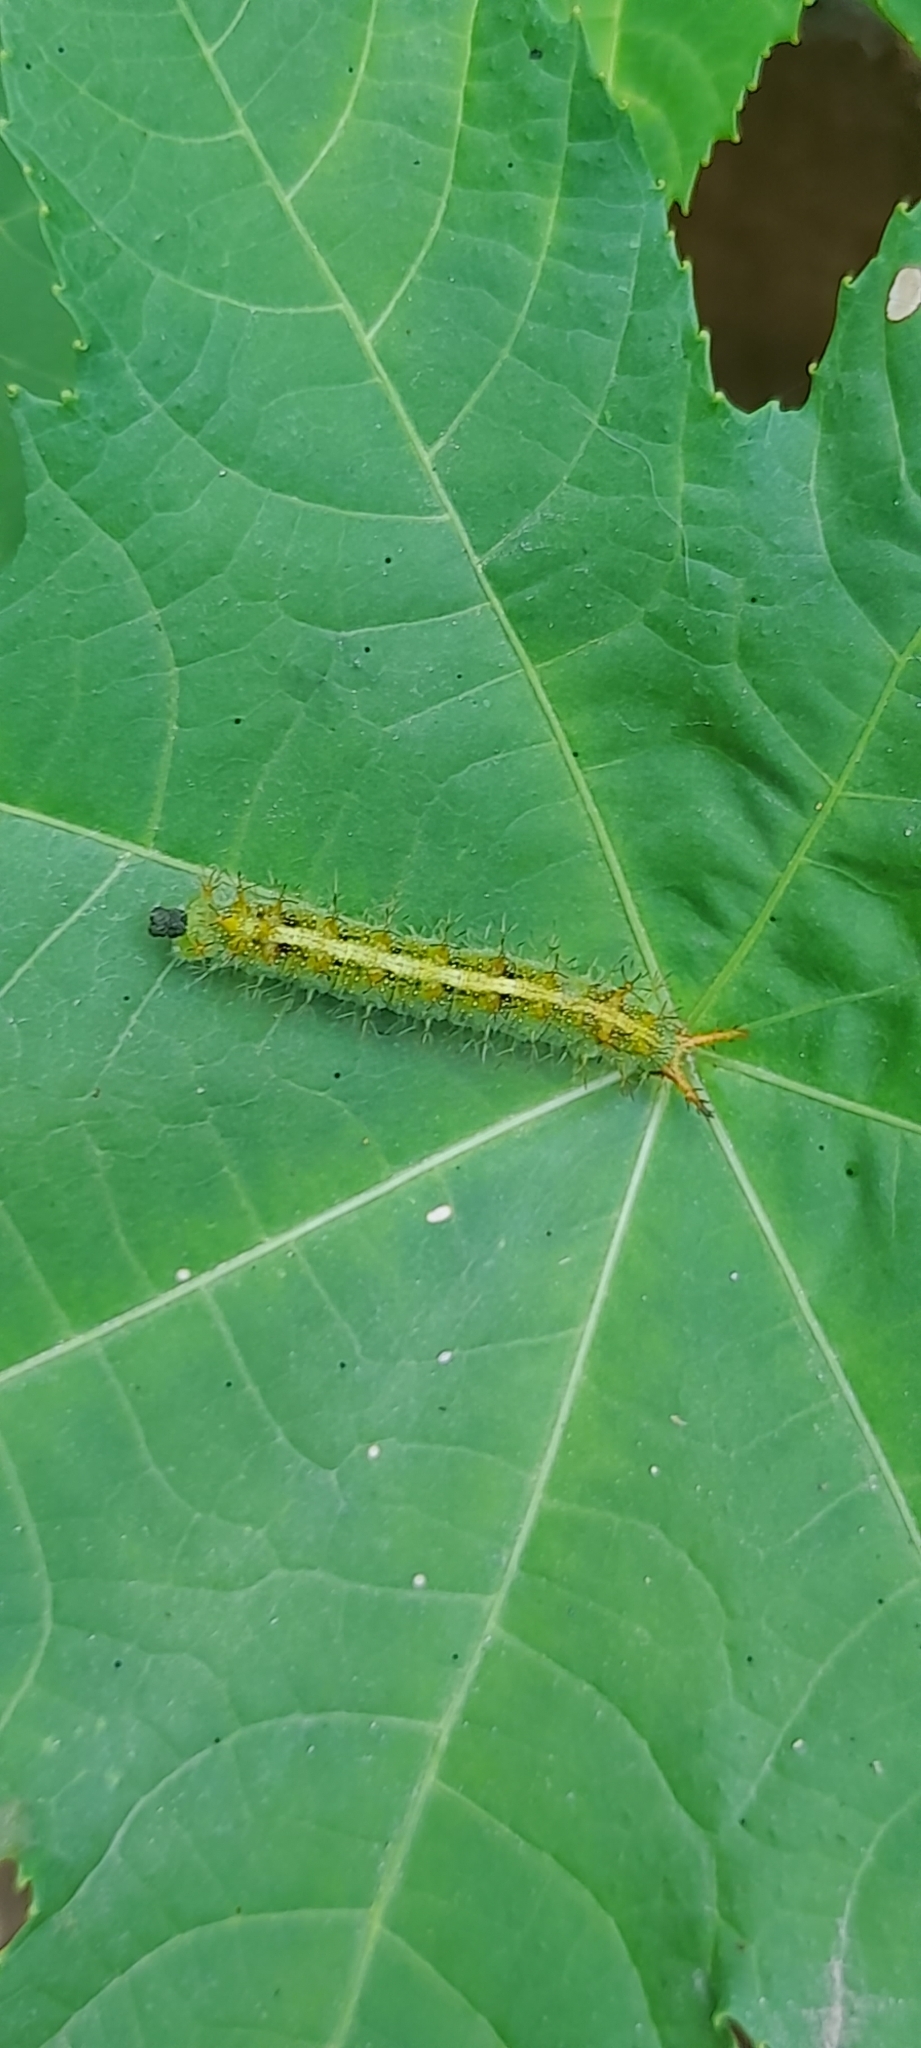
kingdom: Animalia
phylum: Arthropoda
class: Insecta
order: Lepidoptera
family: Nymphalidae
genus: Ariadne
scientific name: Ariadne merione
